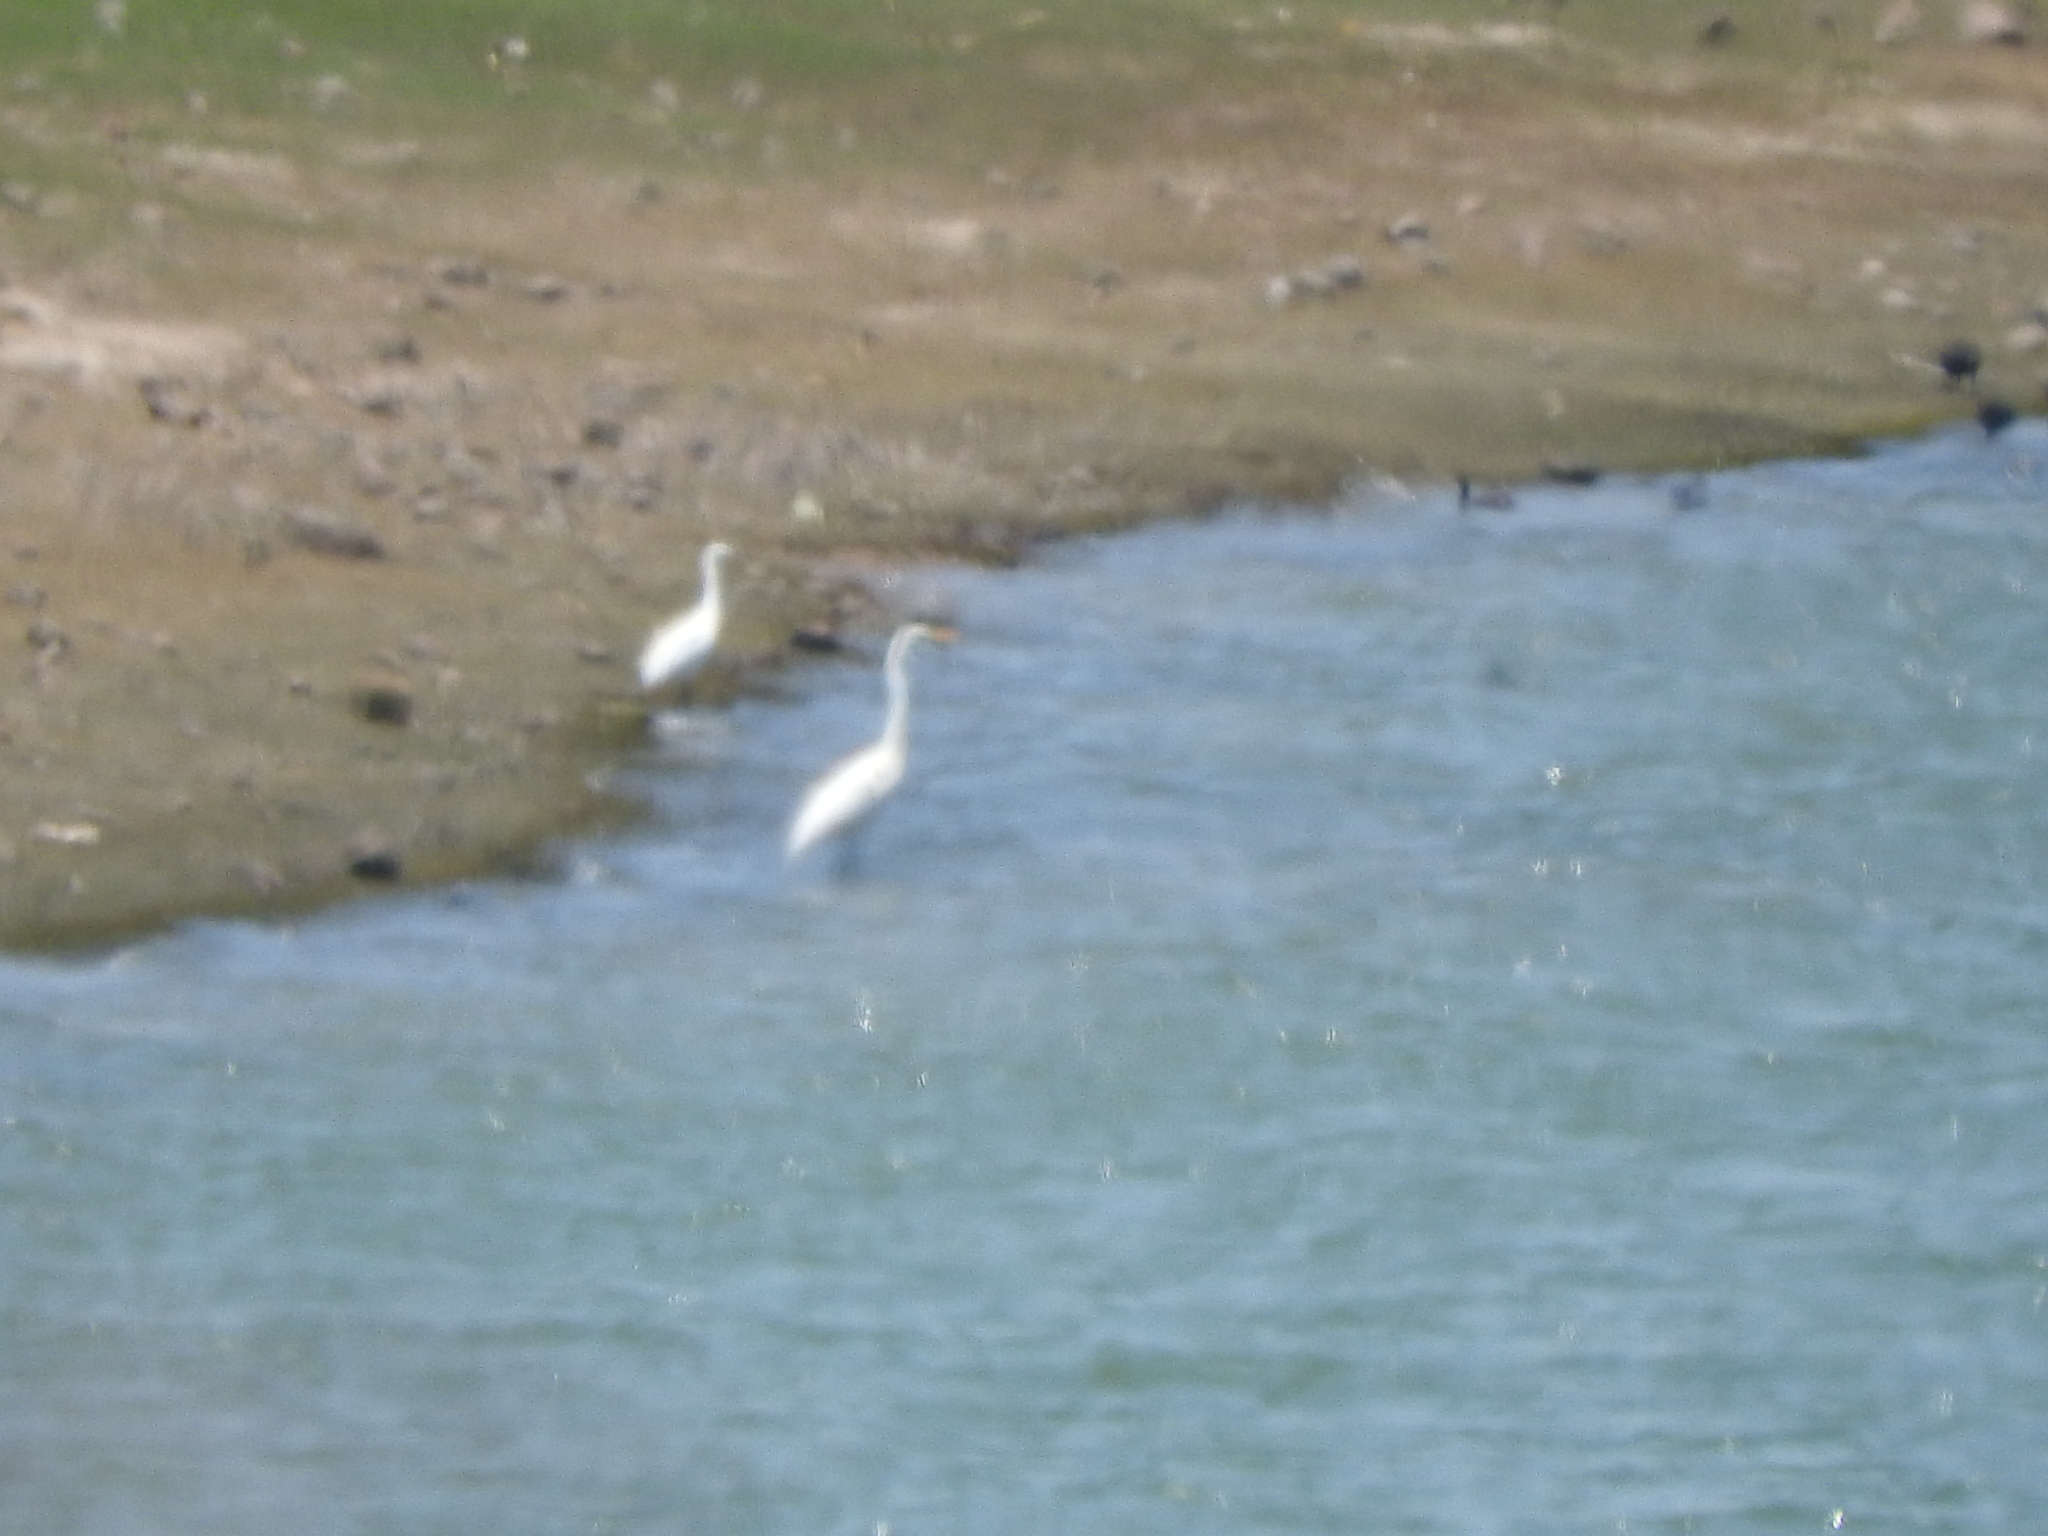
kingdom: Animalia
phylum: Chordata
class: Aves
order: Pelecaniformes
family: Ardeidae
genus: Ardea
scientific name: Ardea alba
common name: Great egret
